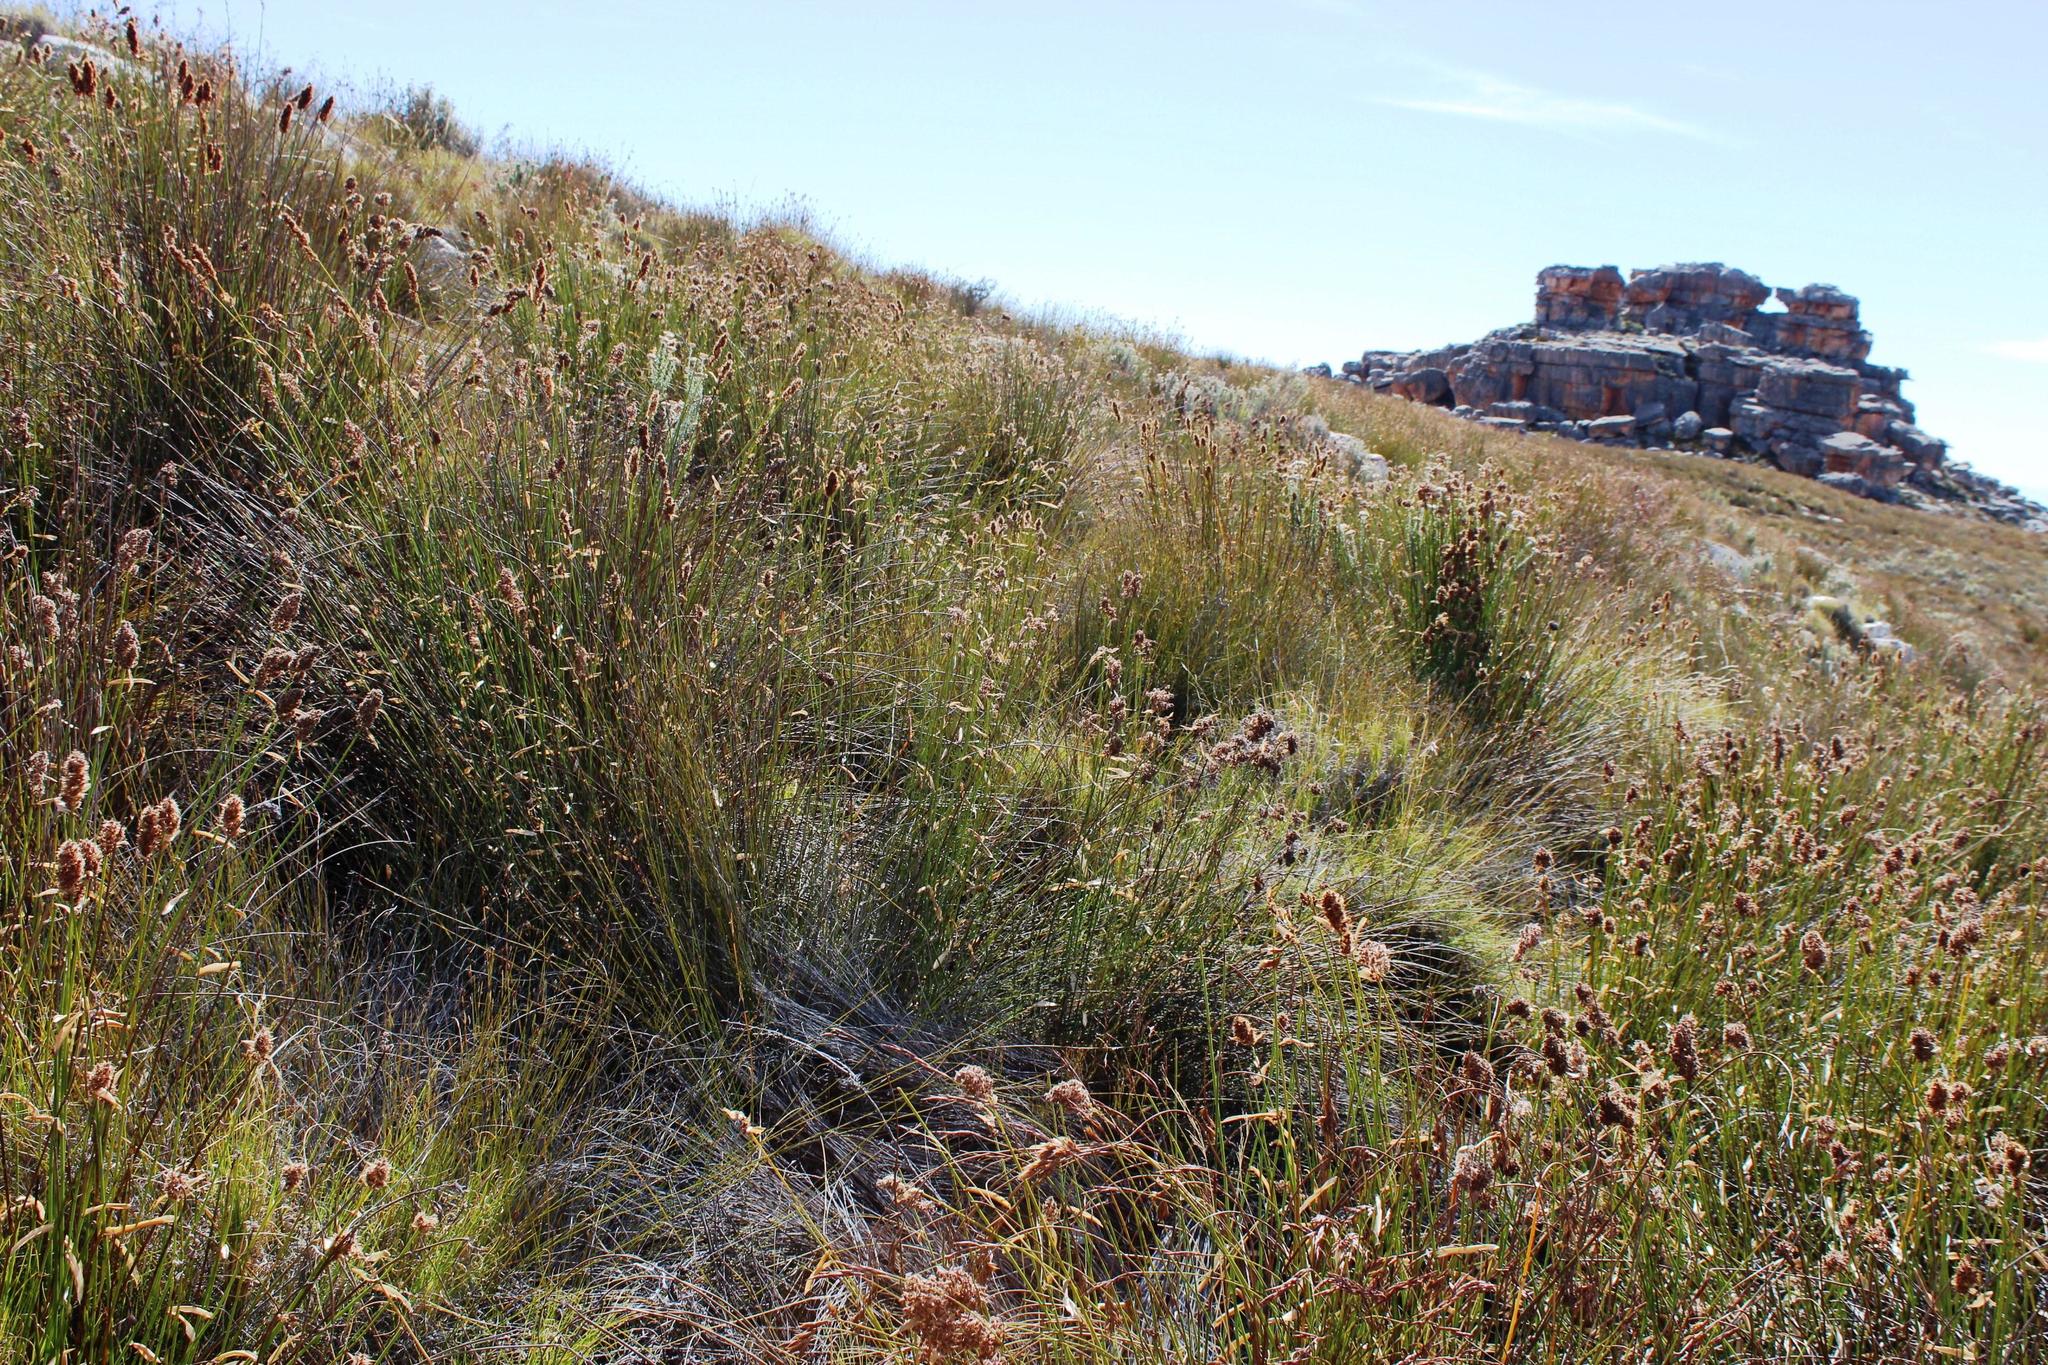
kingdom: Plantae
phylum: Tracheophyta
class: Liliopsida
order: Poales
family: Restionaceae
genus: Elegia
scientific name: Elegia asperiflora
